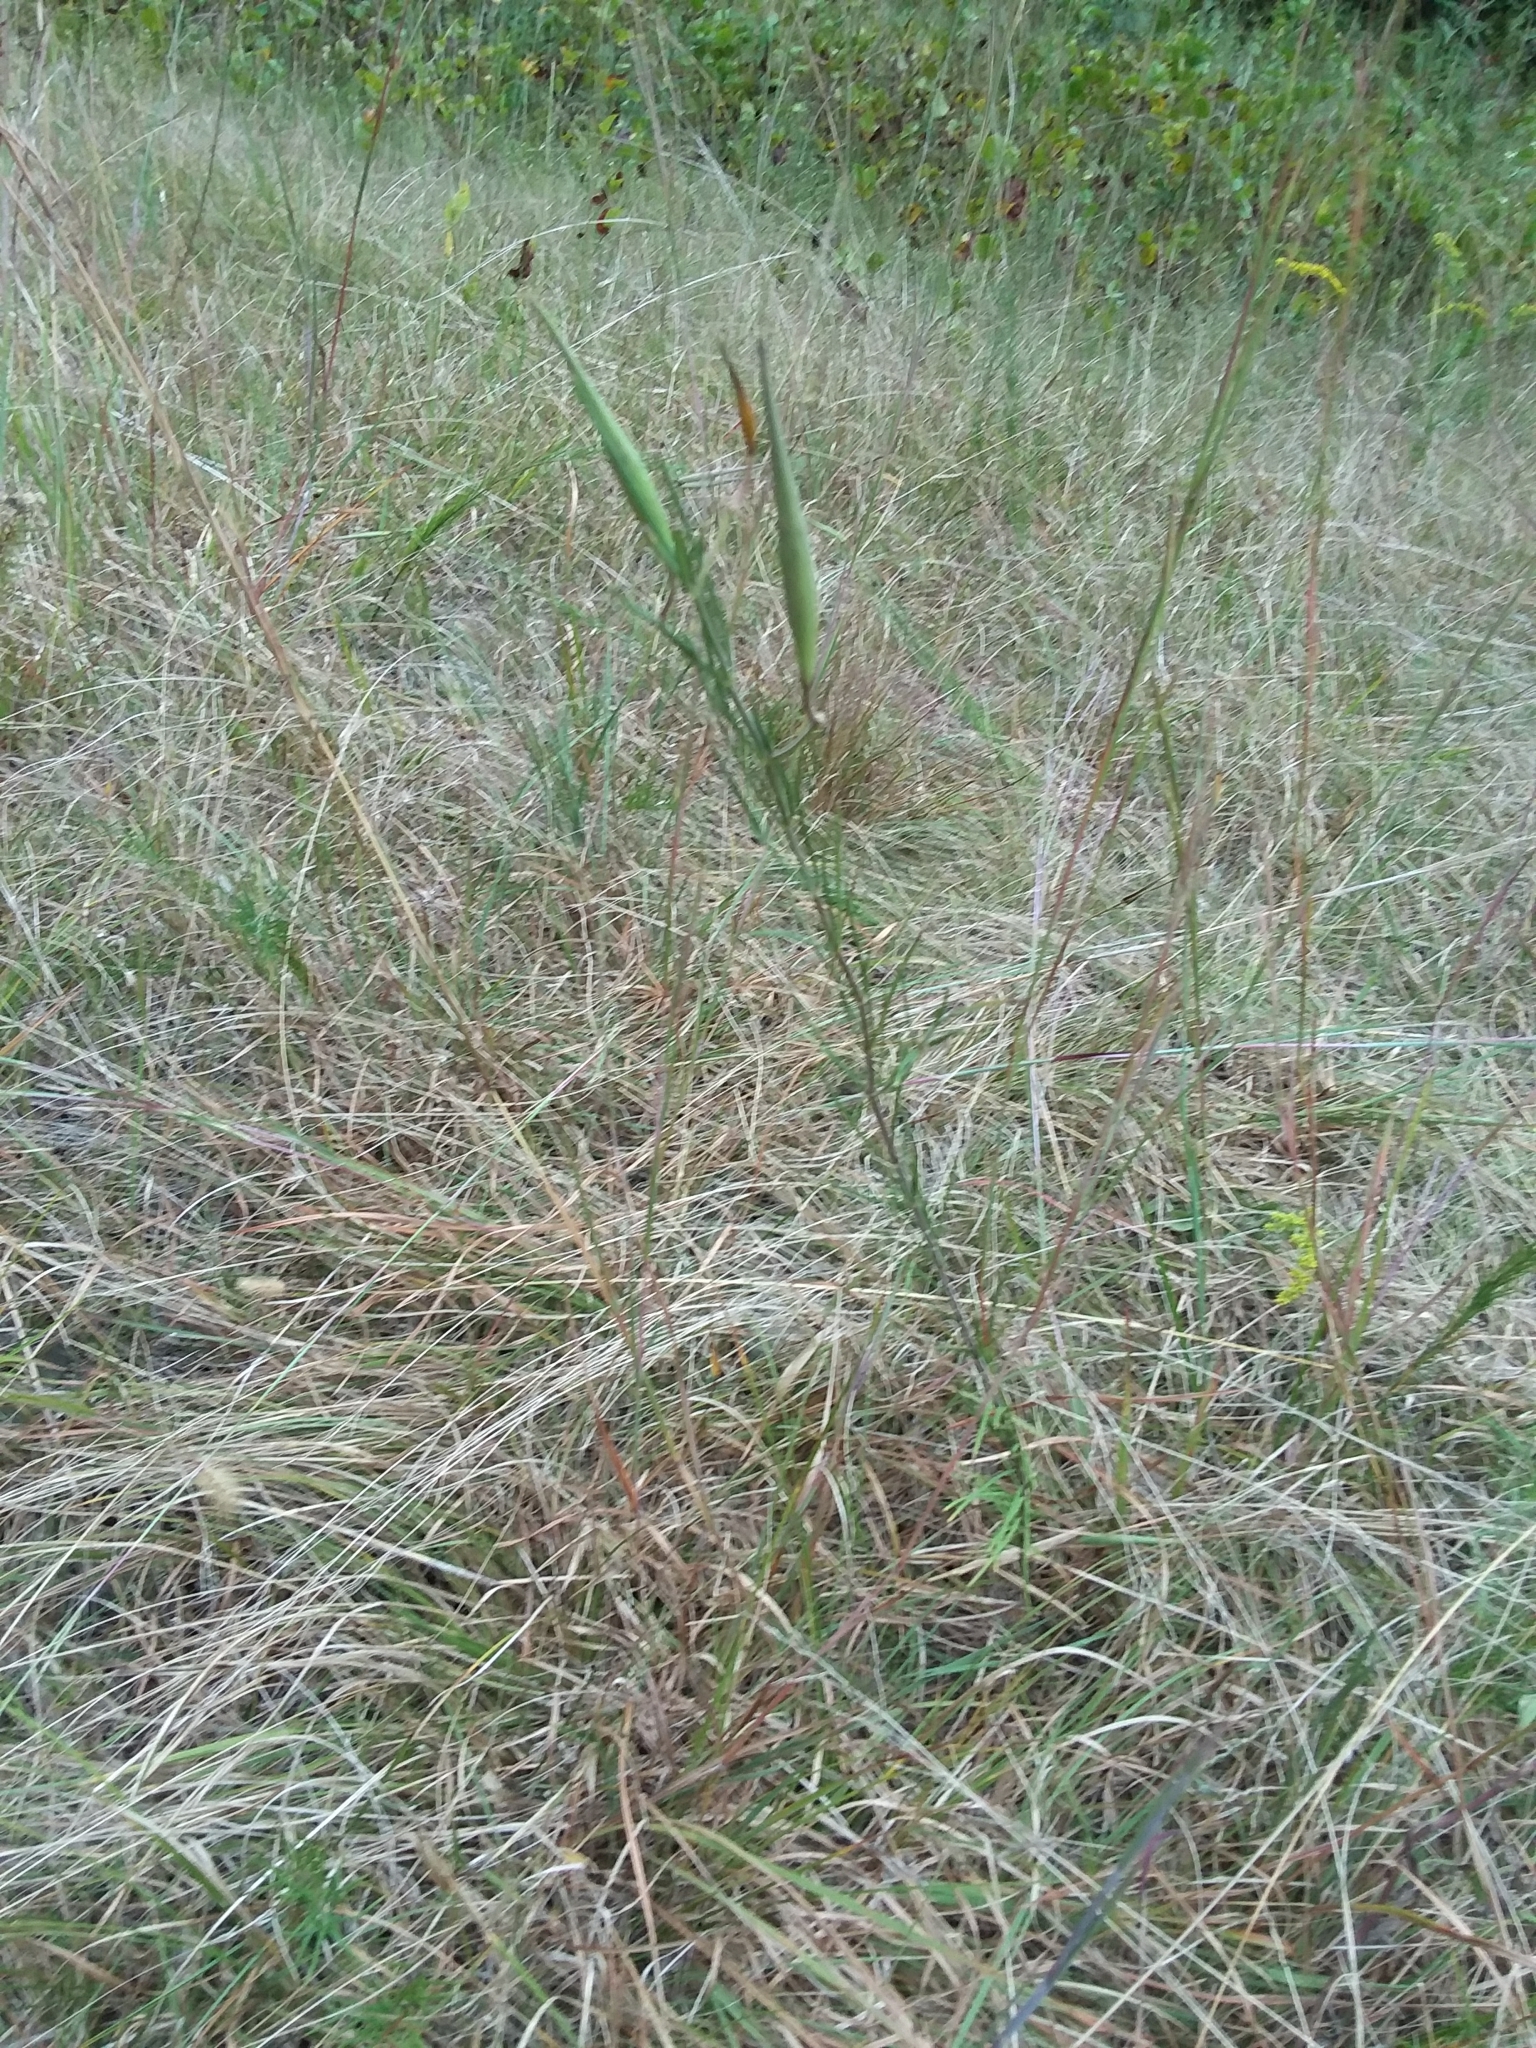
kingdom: Plantae
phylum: Tracheophyta
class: Magnoliopsida
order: Gentianales
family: Apocynaceae
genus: Asclepias
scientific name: Asclepias verticillata
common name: Eastern whorled milkweed
